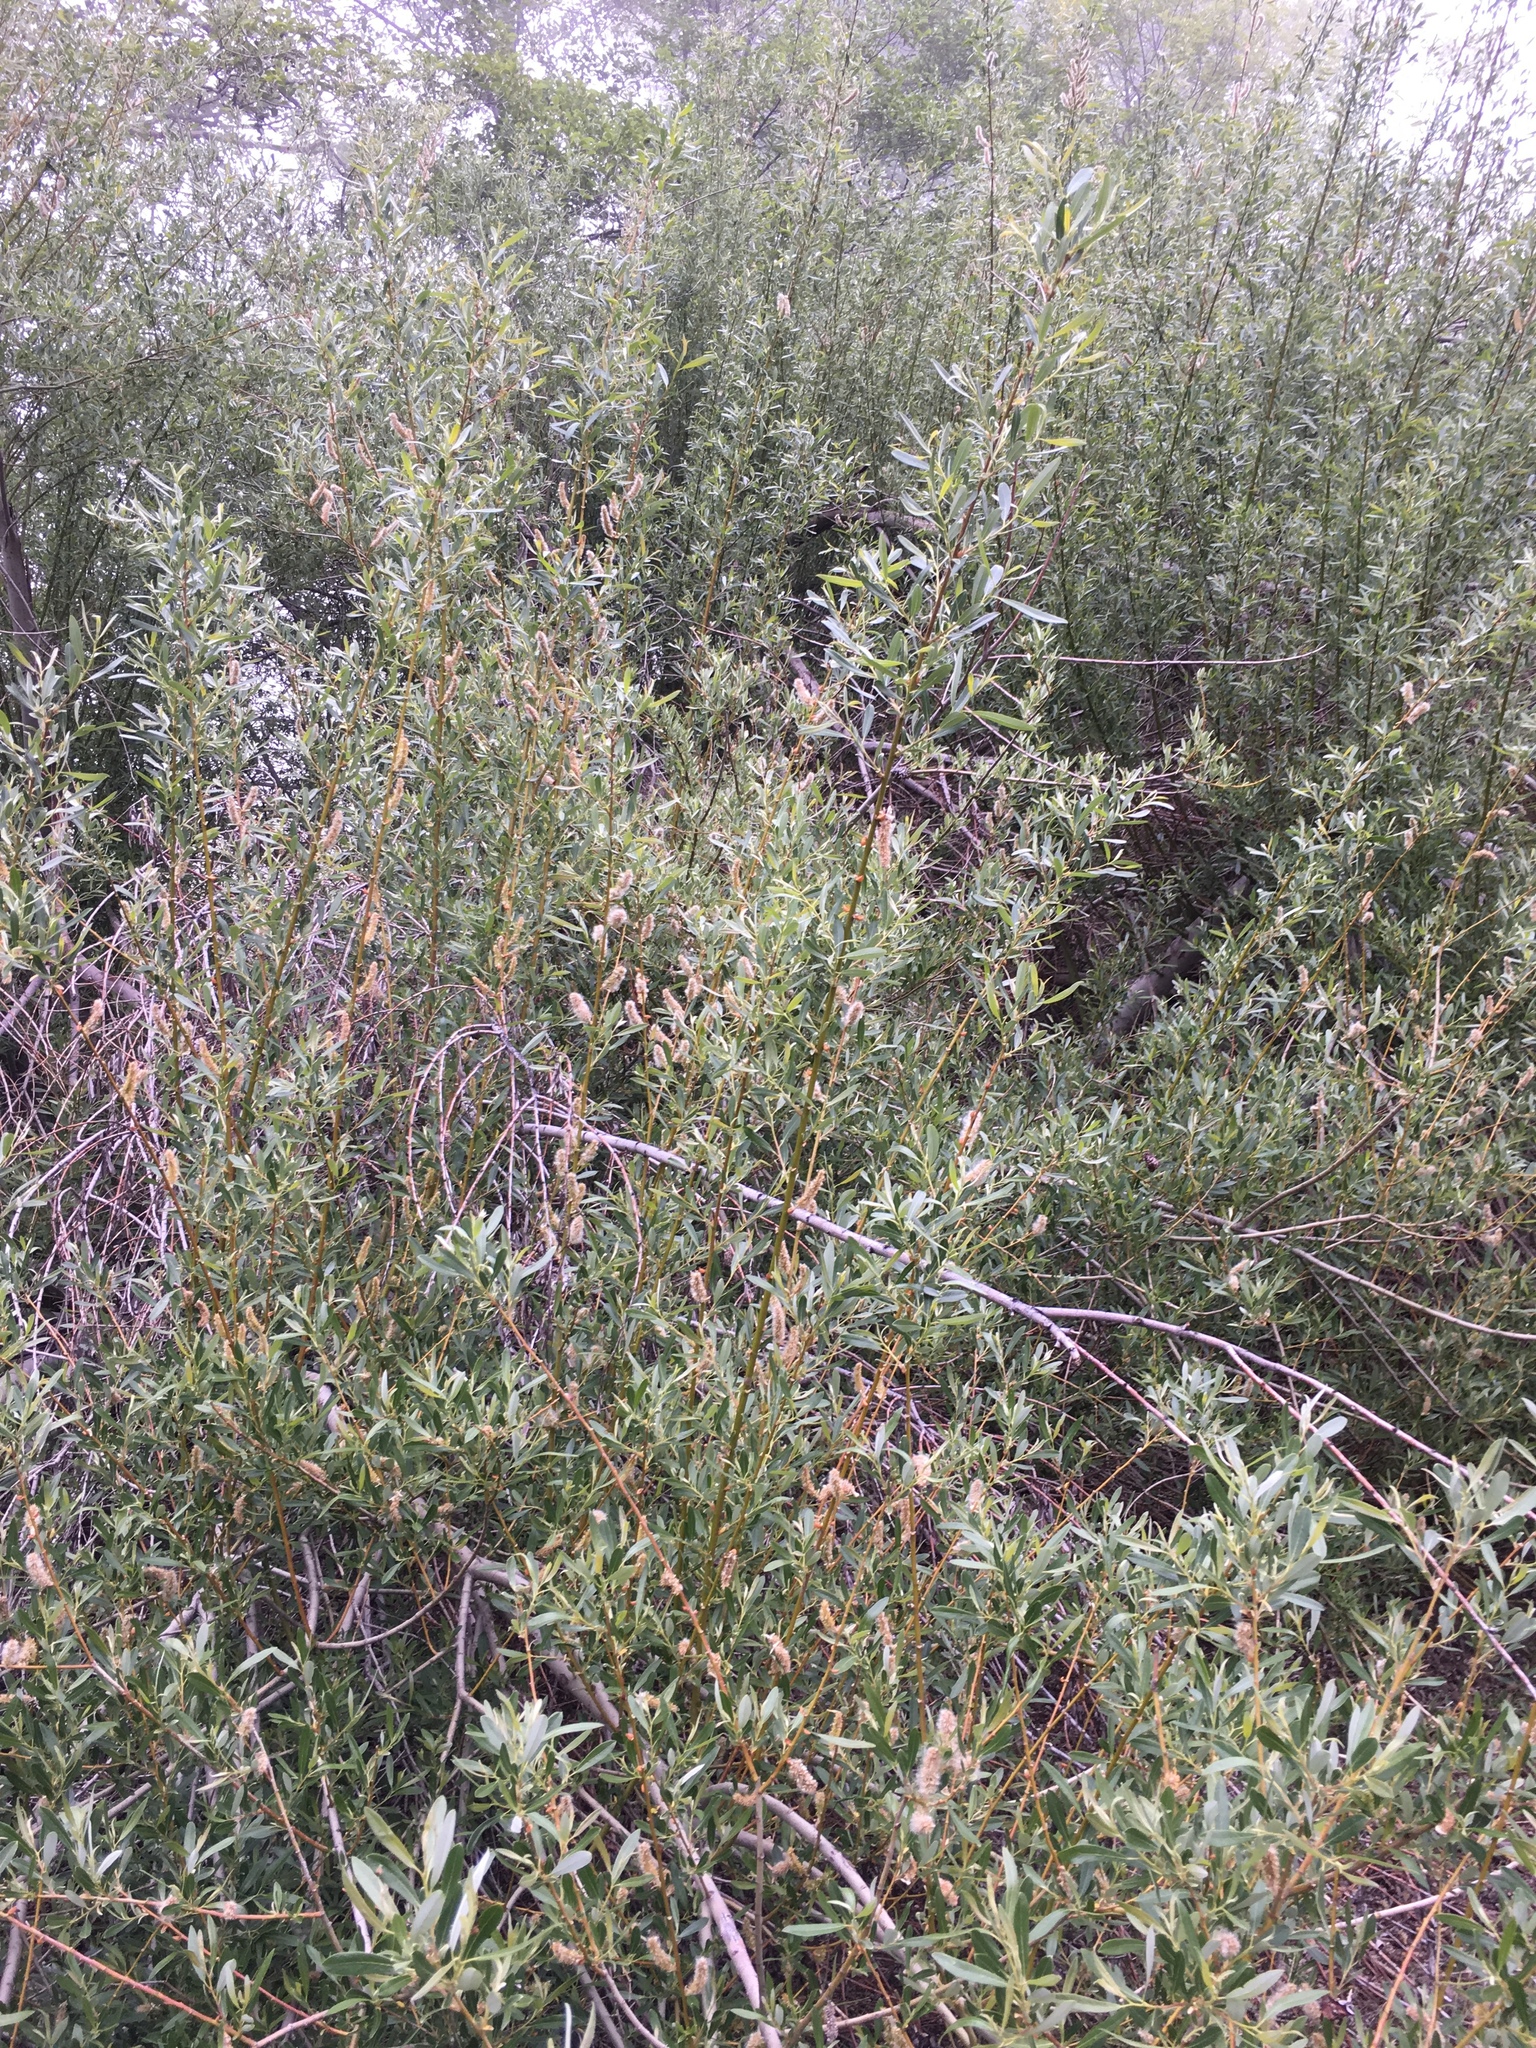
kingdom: Plantae
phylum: Tracheophyta
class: Magnoliopsida
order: Malpighiales
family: Salicaceae
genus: Salix
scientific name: Salix lasiolepis
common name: Arroyo willow
